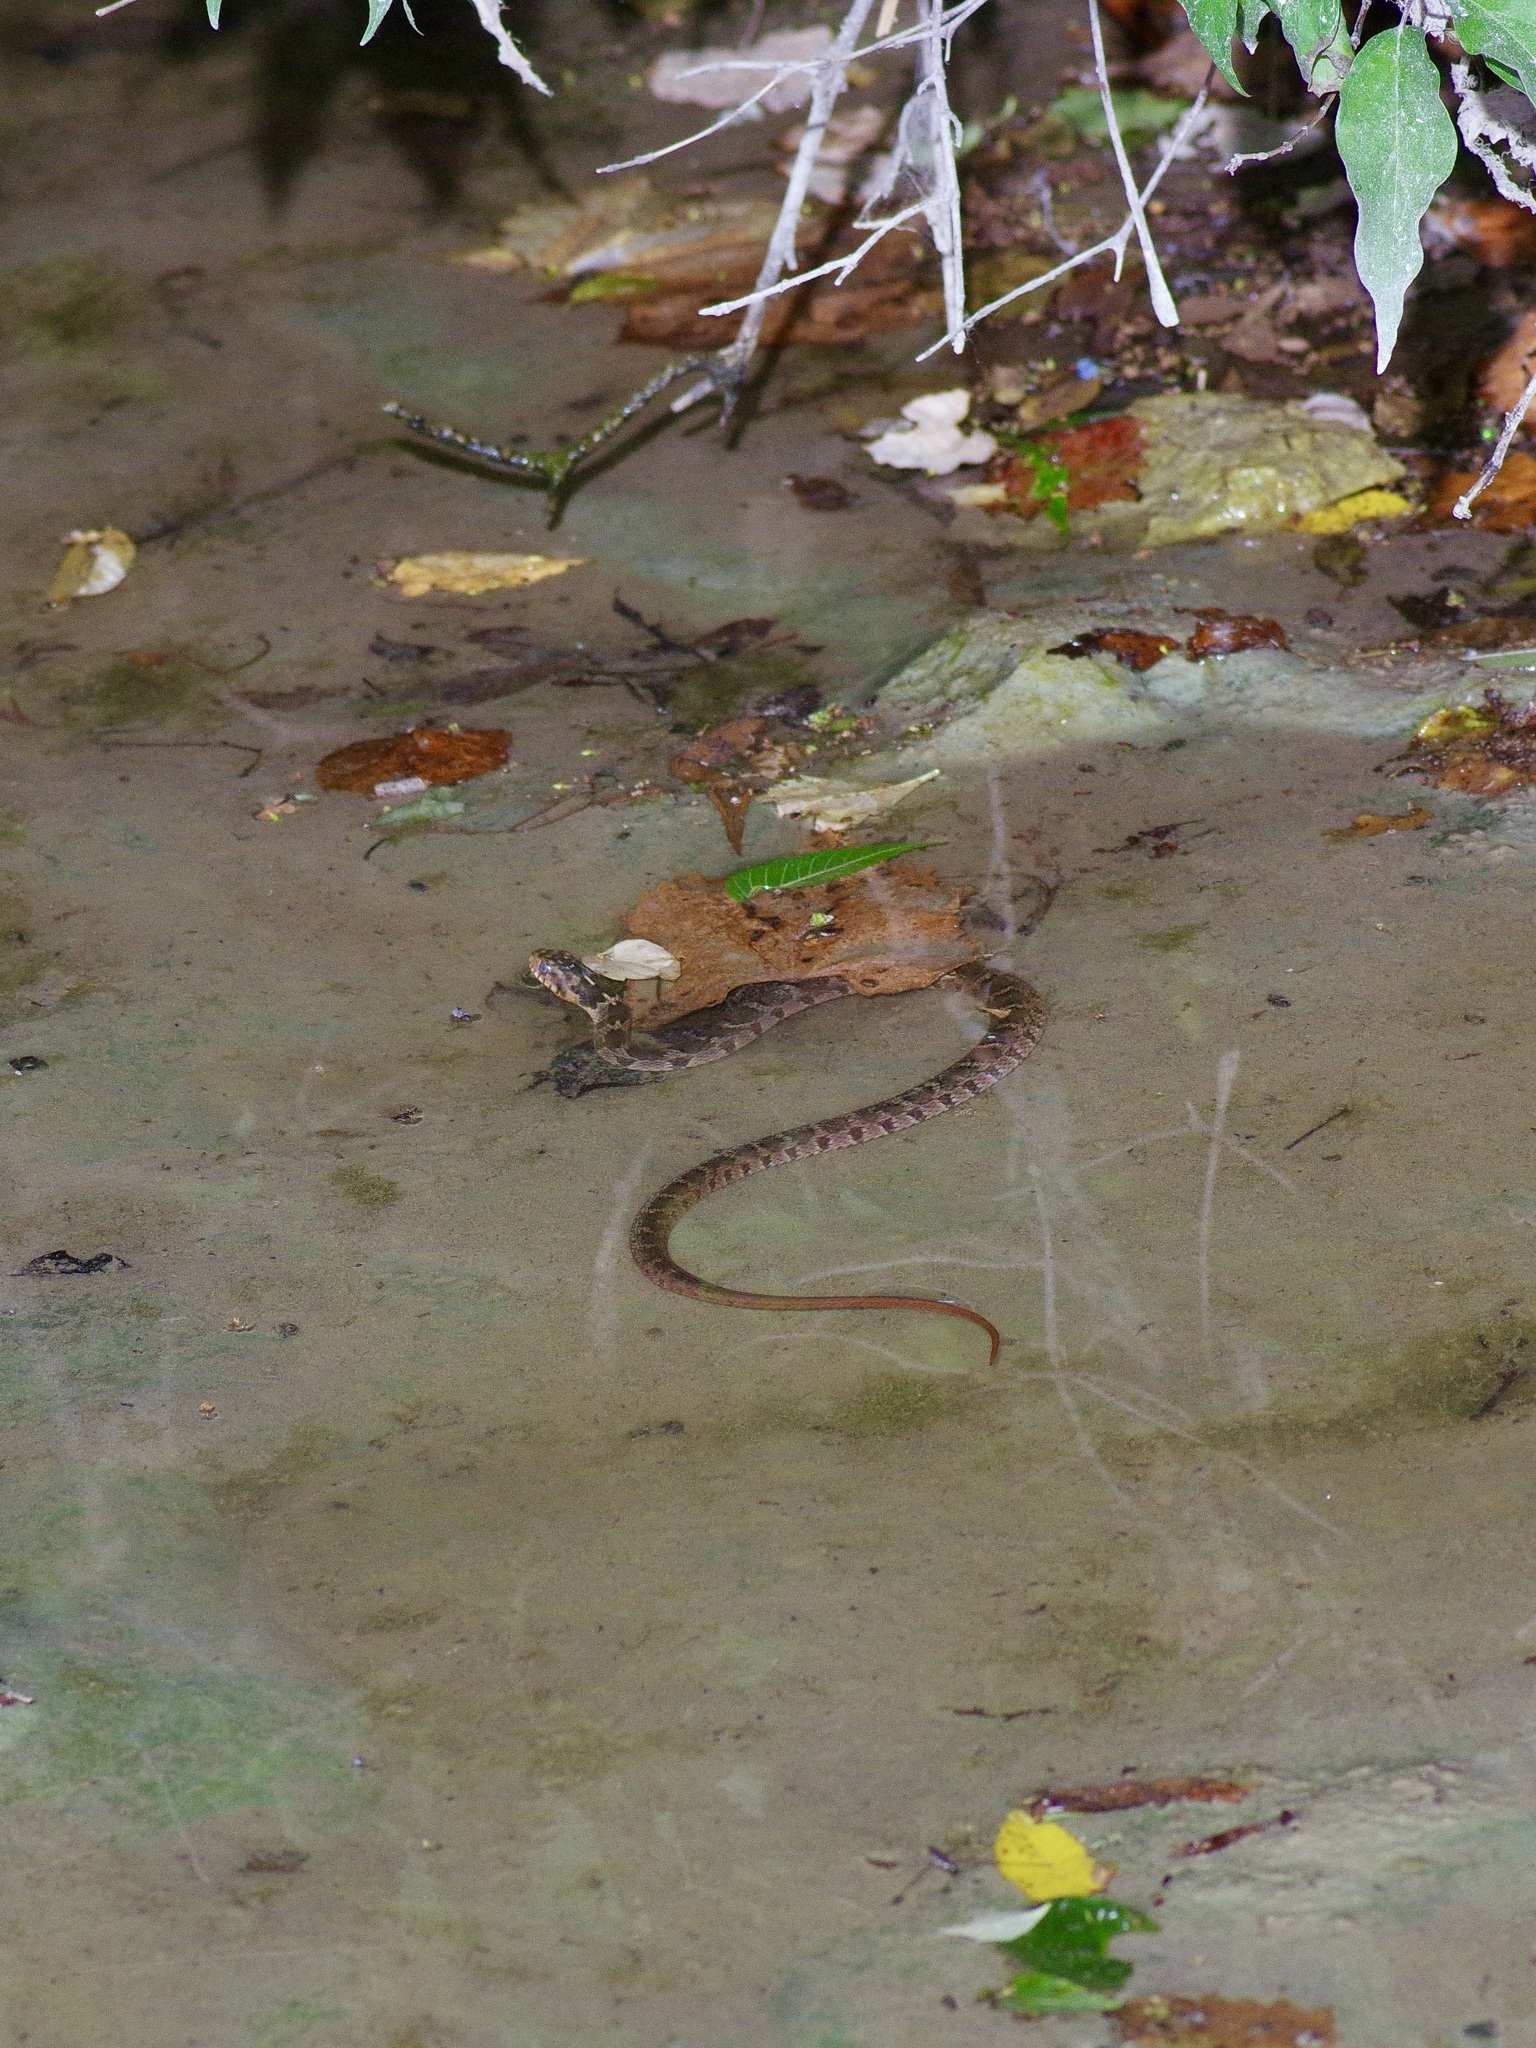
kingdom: Animalia
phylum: Chordata
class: Squamata
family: Colubridae
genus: Nerodia
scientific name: Nerodia erythrogaster
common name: Plainbelly water snake
